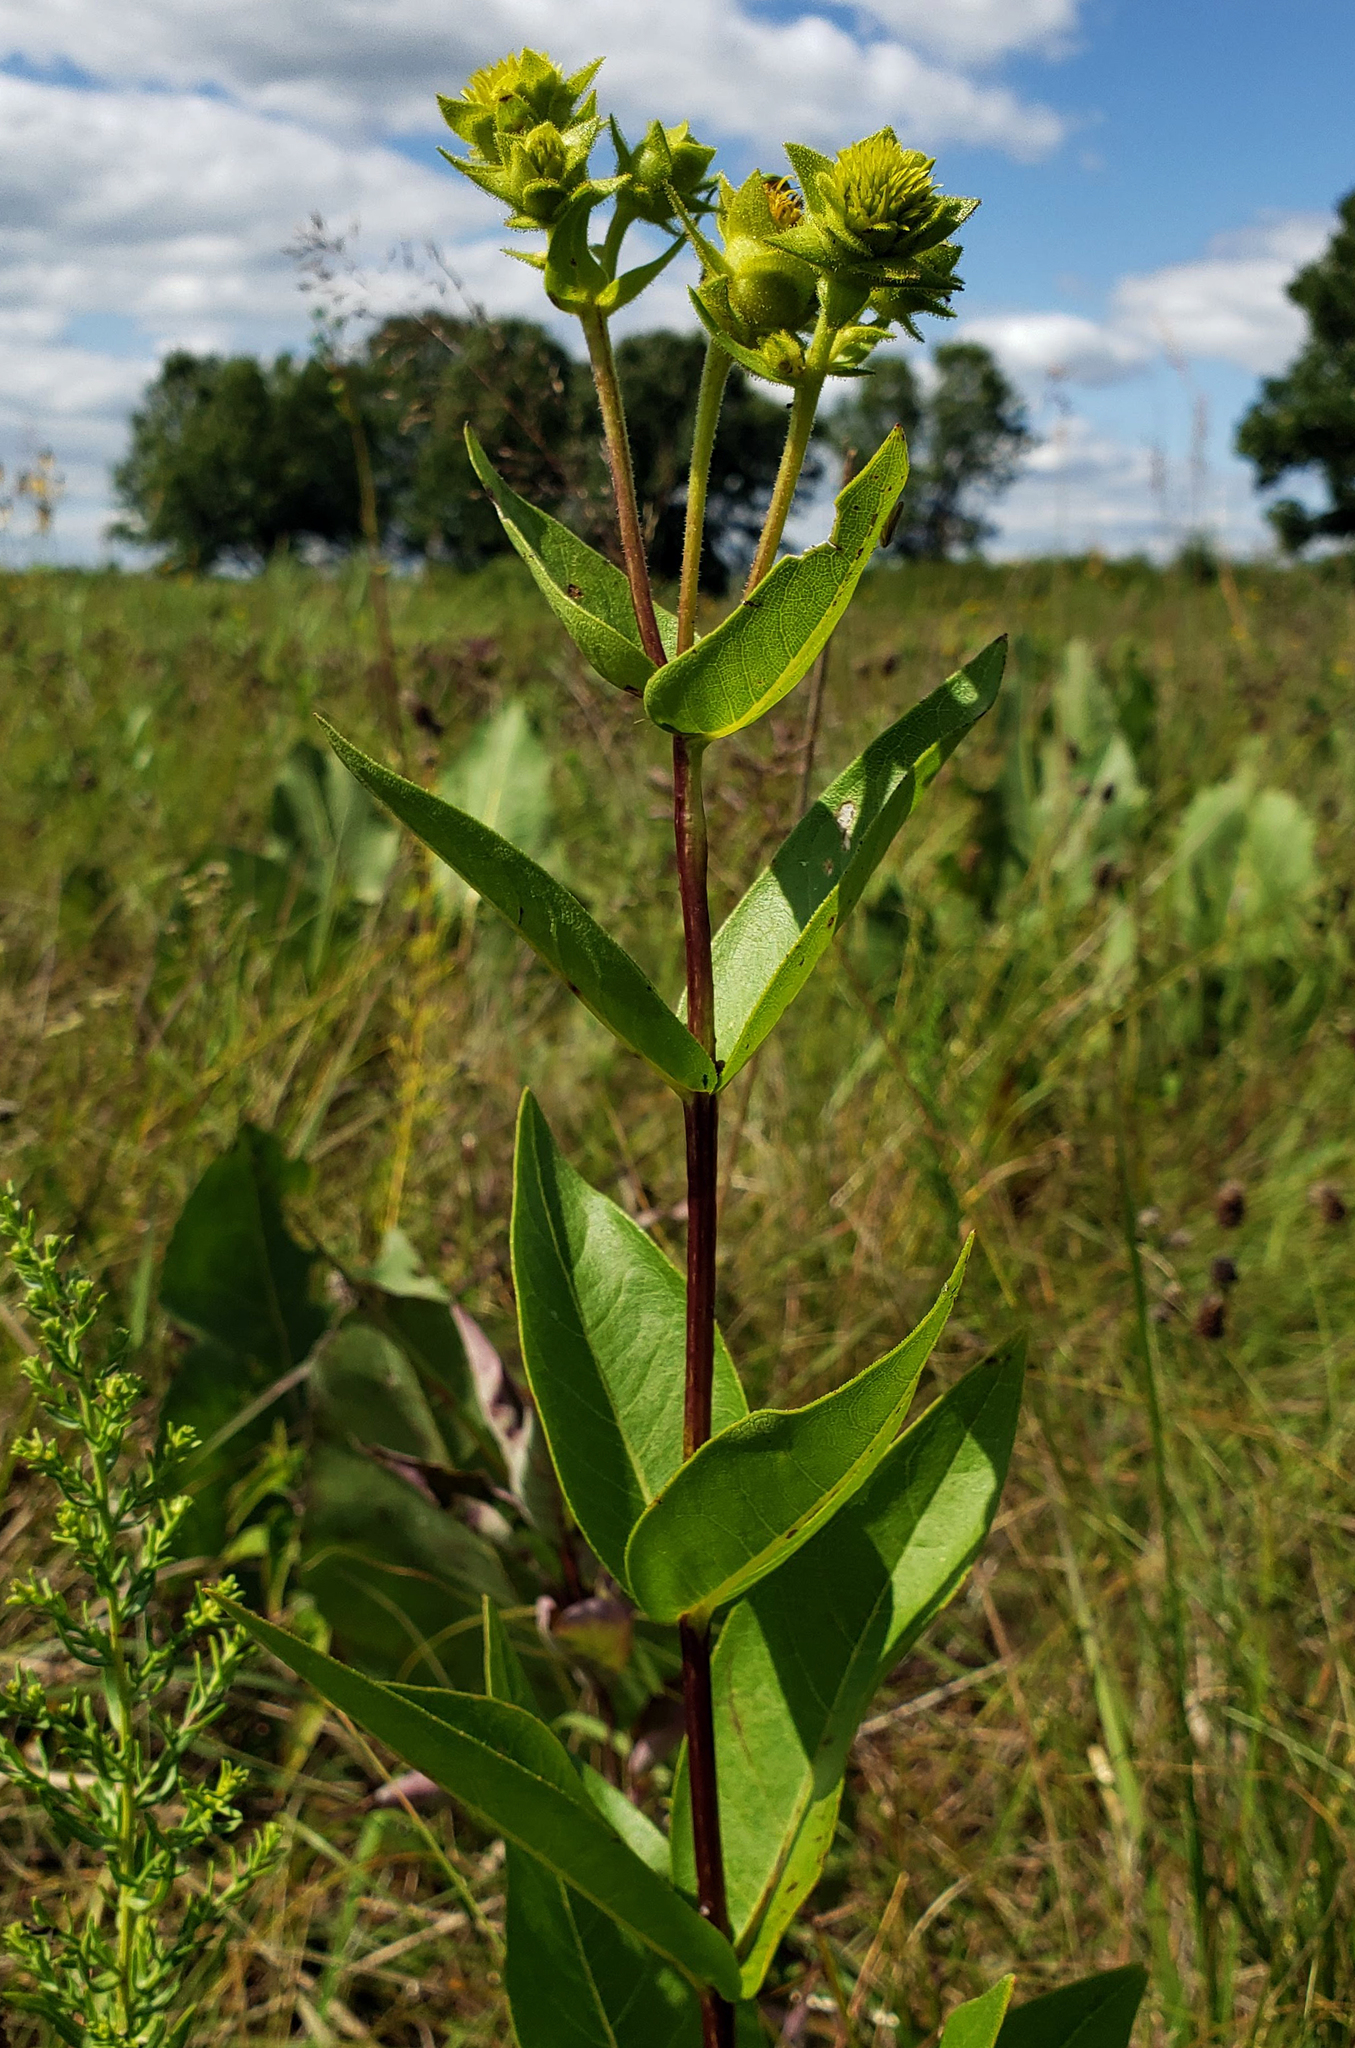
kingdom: Plantae
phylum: Tracheophyta
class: Magnoliopsida
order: Asterales
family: Asteraceae
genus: Silphium
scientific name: Silphium integrifolium
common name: Whole-leaf rosinweed
